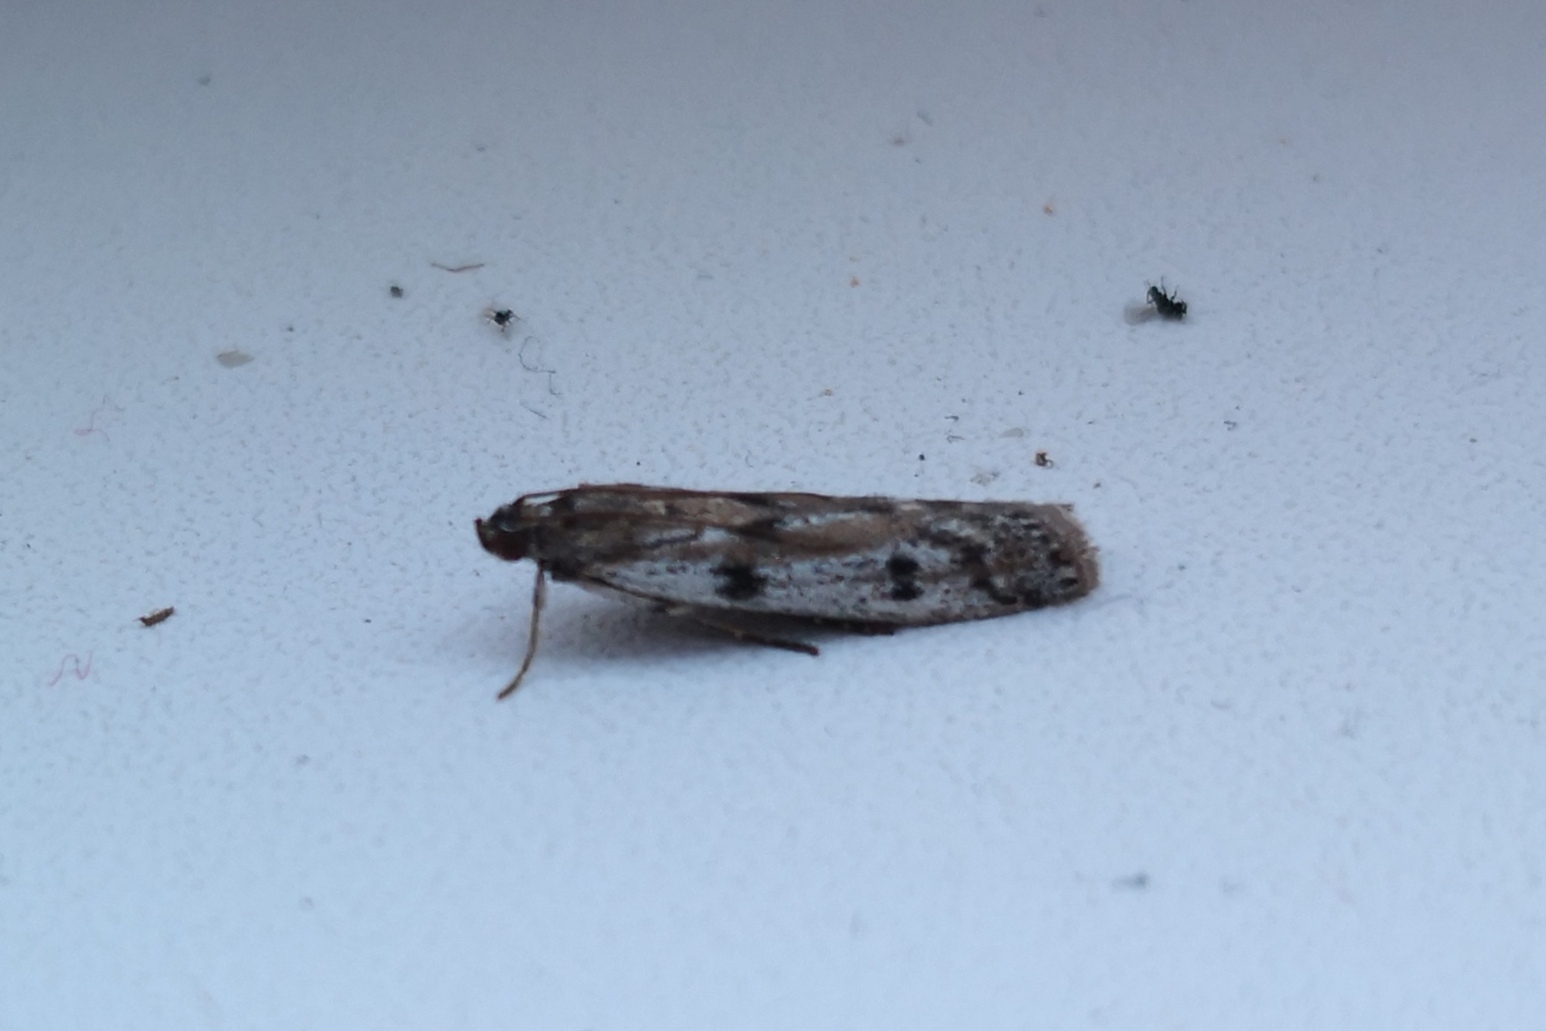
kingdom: Animalia
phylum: Arthropoda
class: Insecta
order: Lepidoptera
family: Pyralidae
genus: Phycitodes
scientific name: Phycitodes binaevella
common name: Ermine knot-horn
